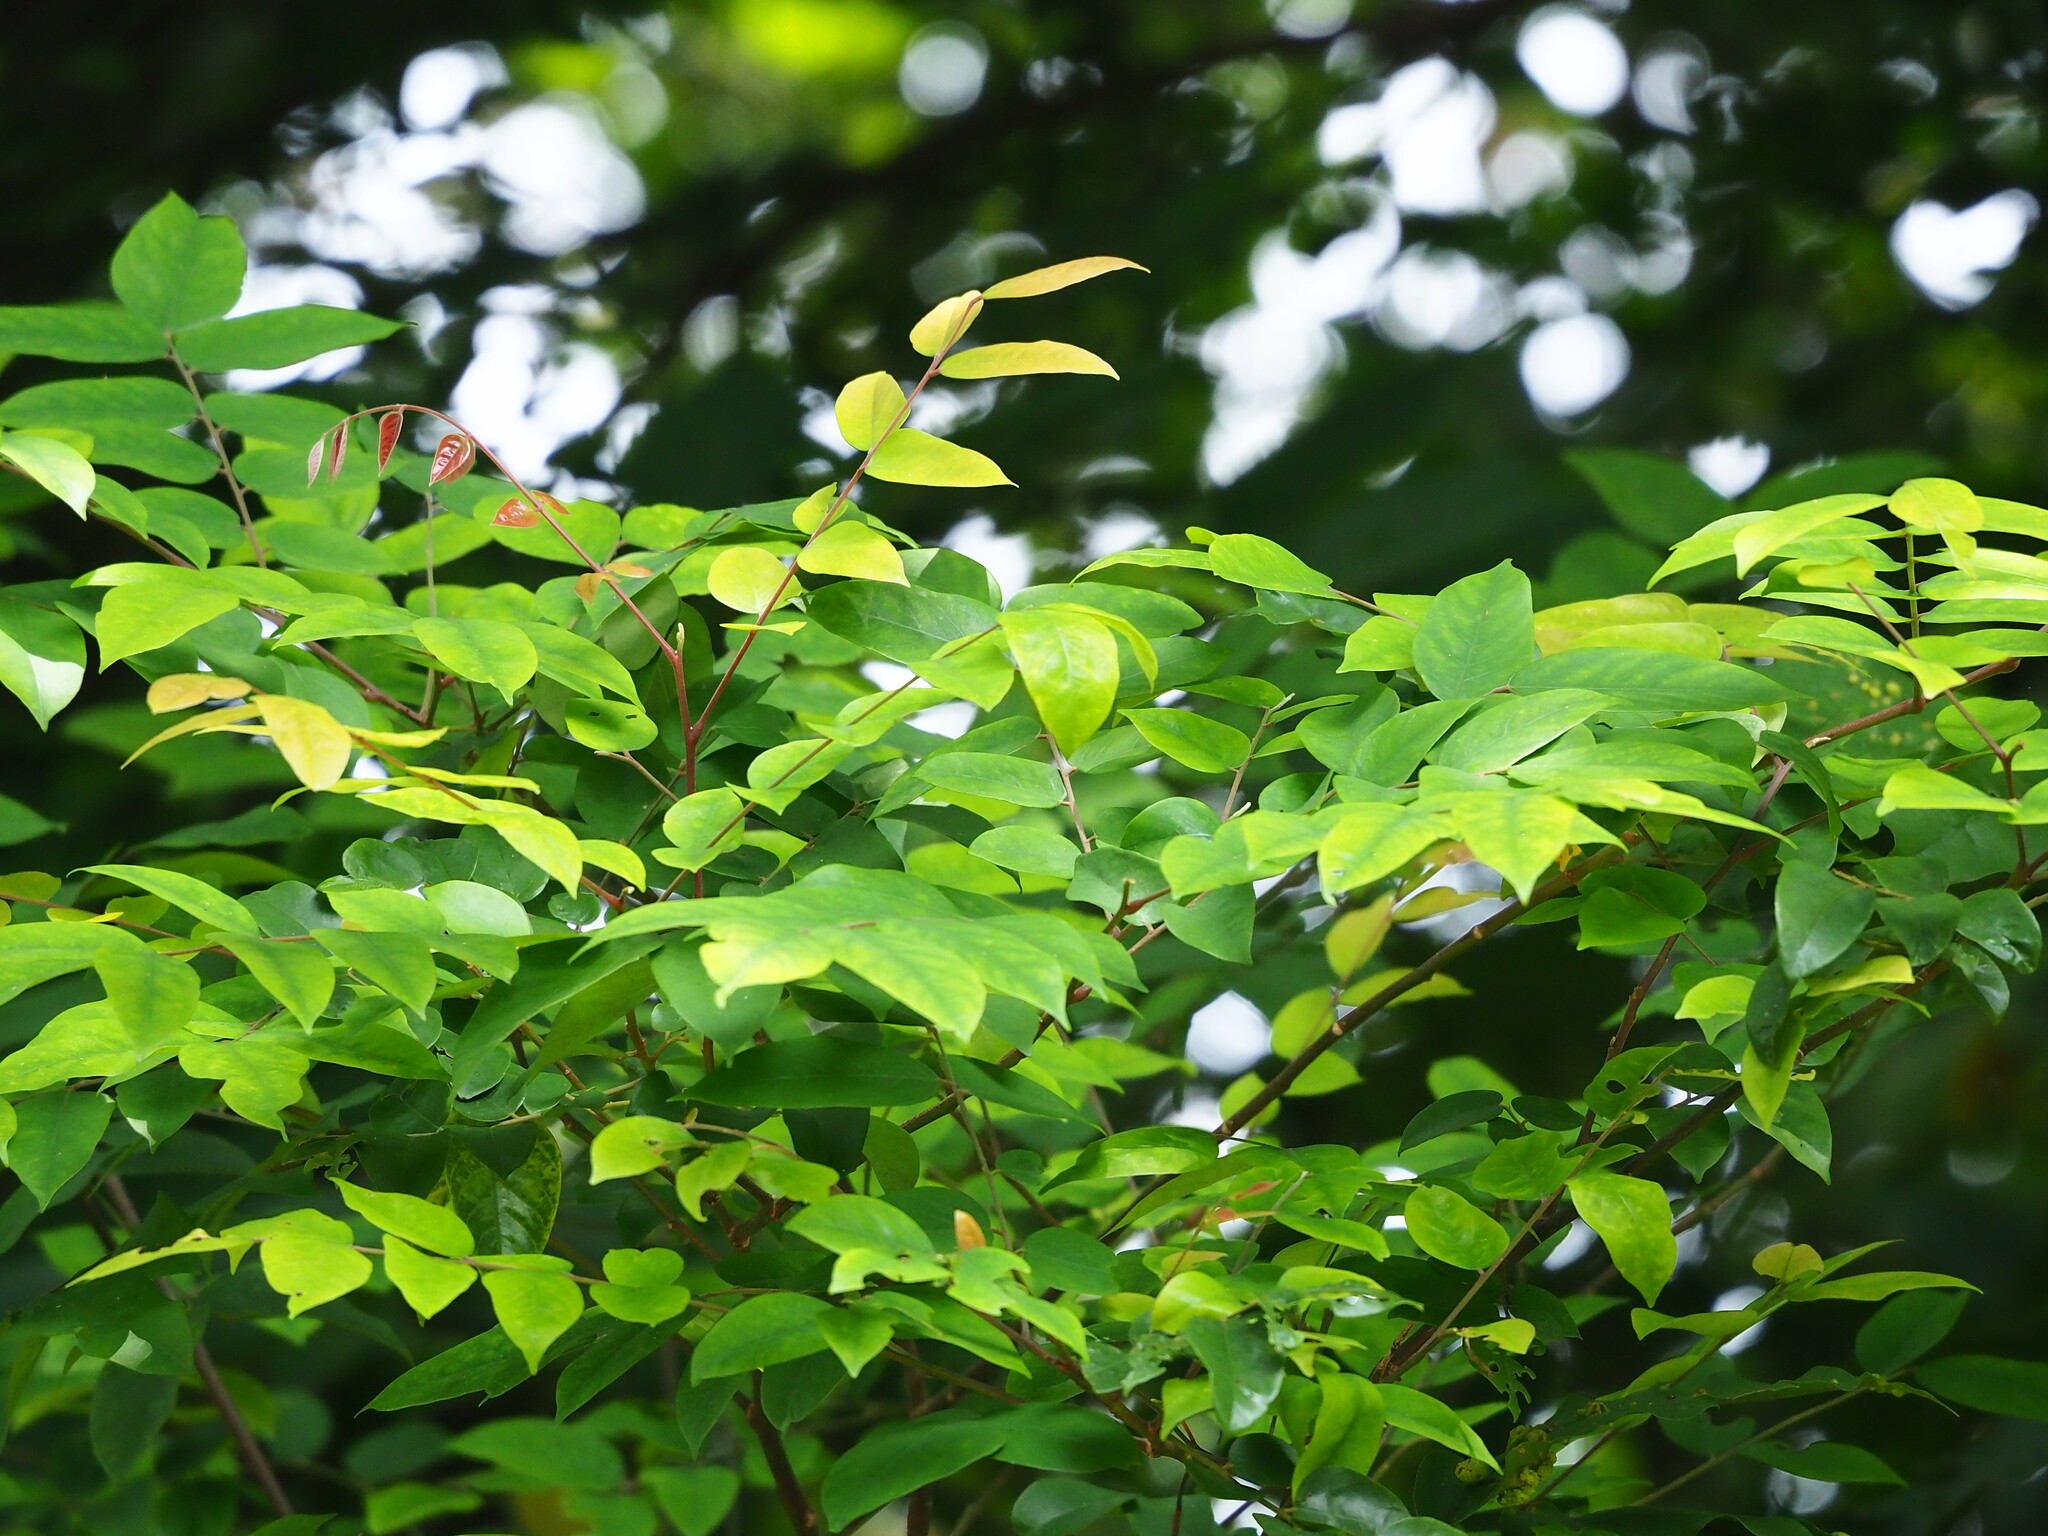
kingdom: Plantae
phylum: Tracheophyta
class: Magnoliopsida
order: Oxalidales
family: Oxalidaceae
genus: Averrhoa
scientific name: Averrhoa carambola
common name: Blimbing
